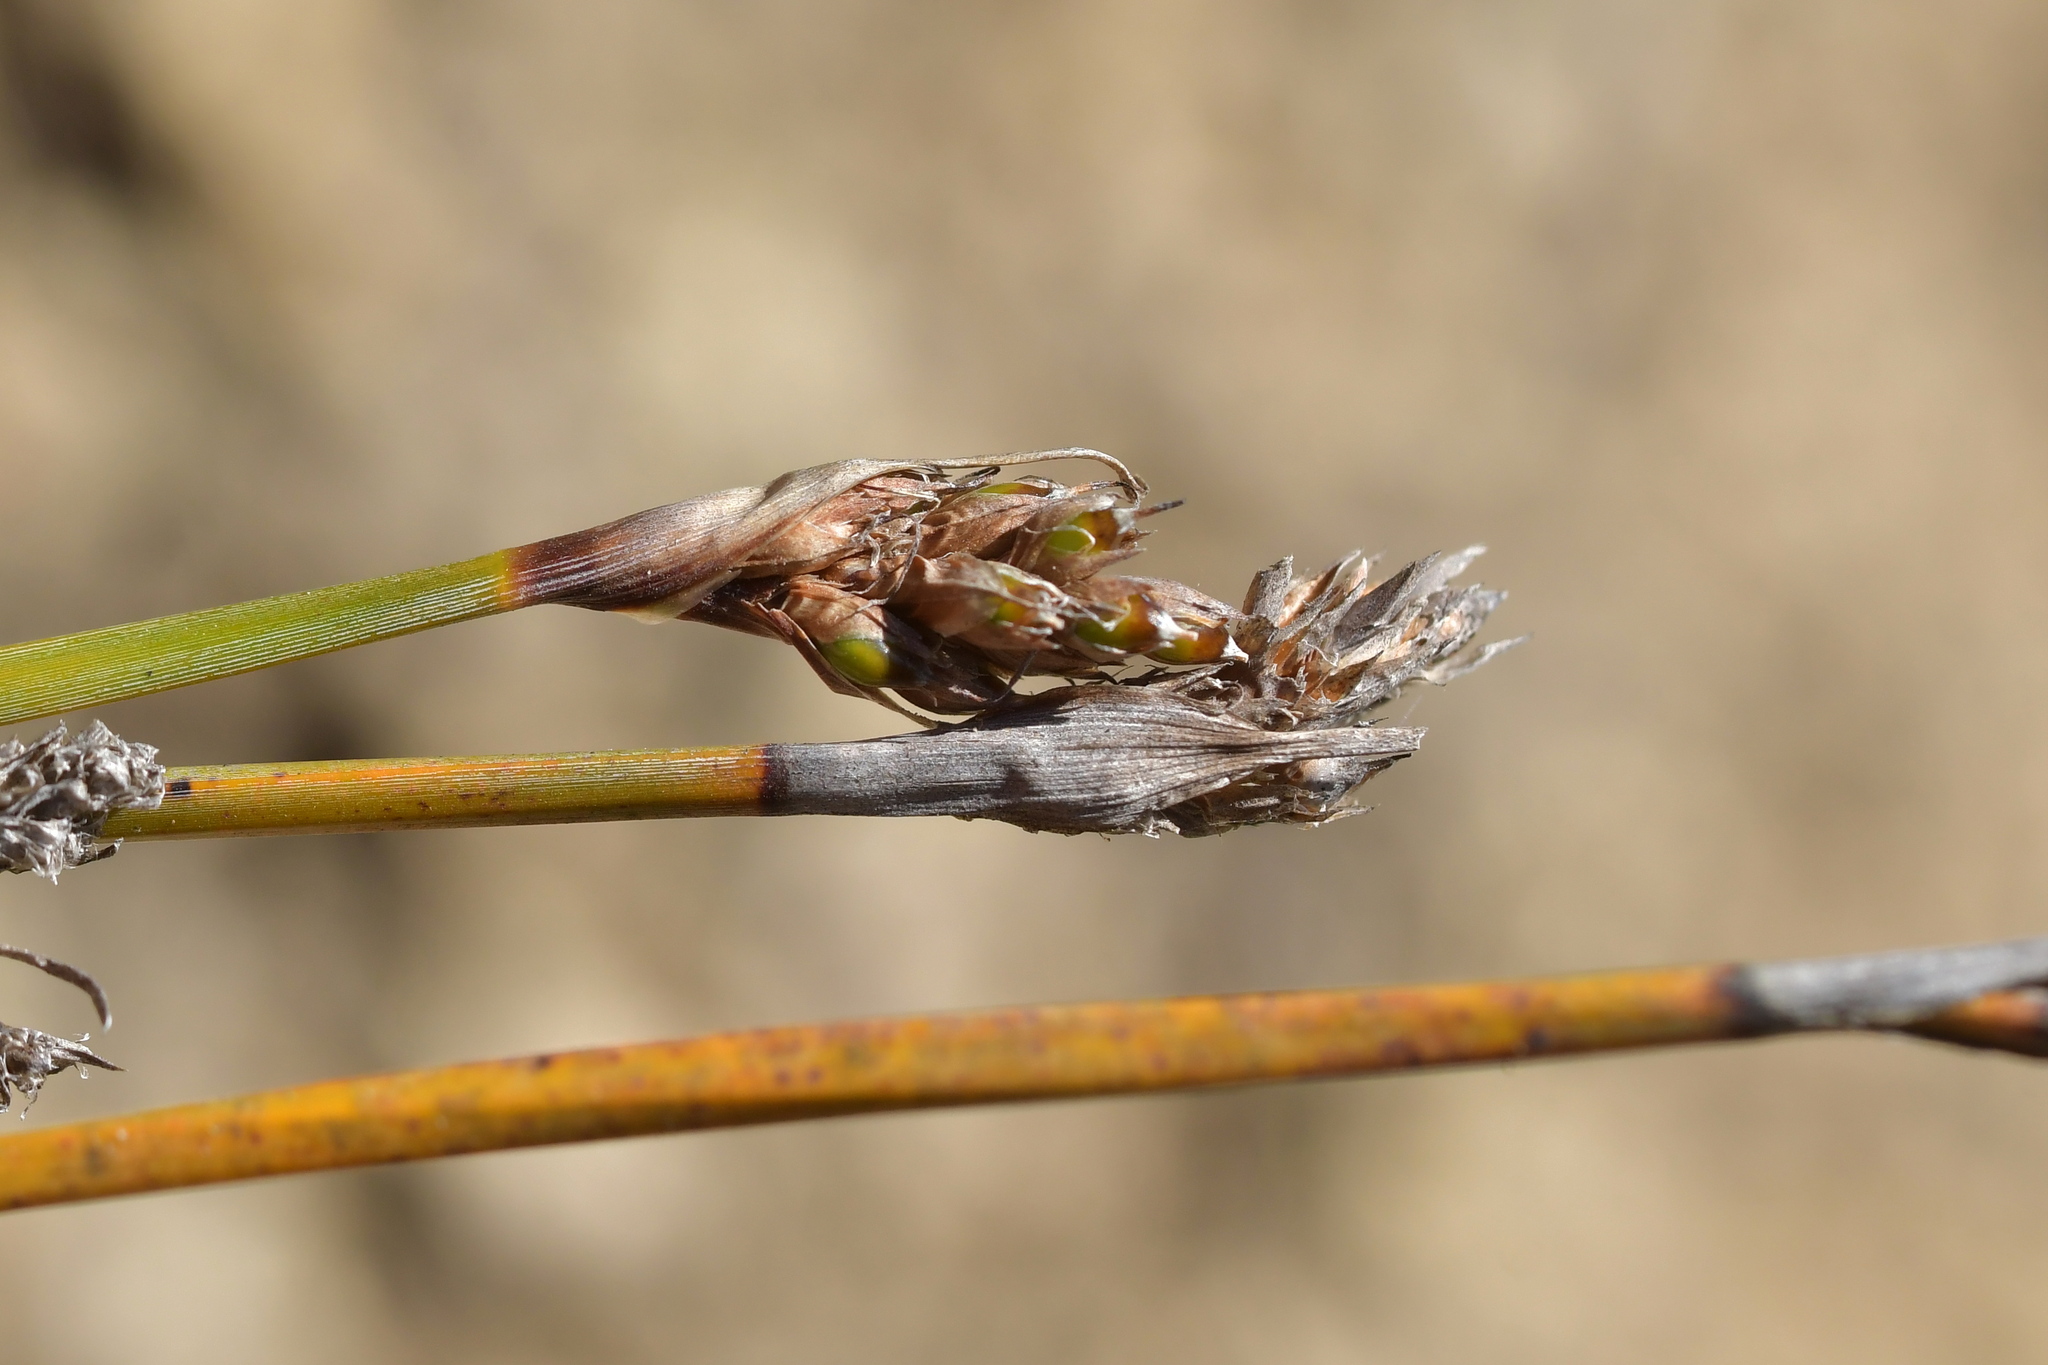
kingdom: Plantae
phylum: Tracheophyta
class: Liliopsida
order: Poales
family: Cyperaceae
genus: Lepidosperma
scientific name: Lepidosperma australe
